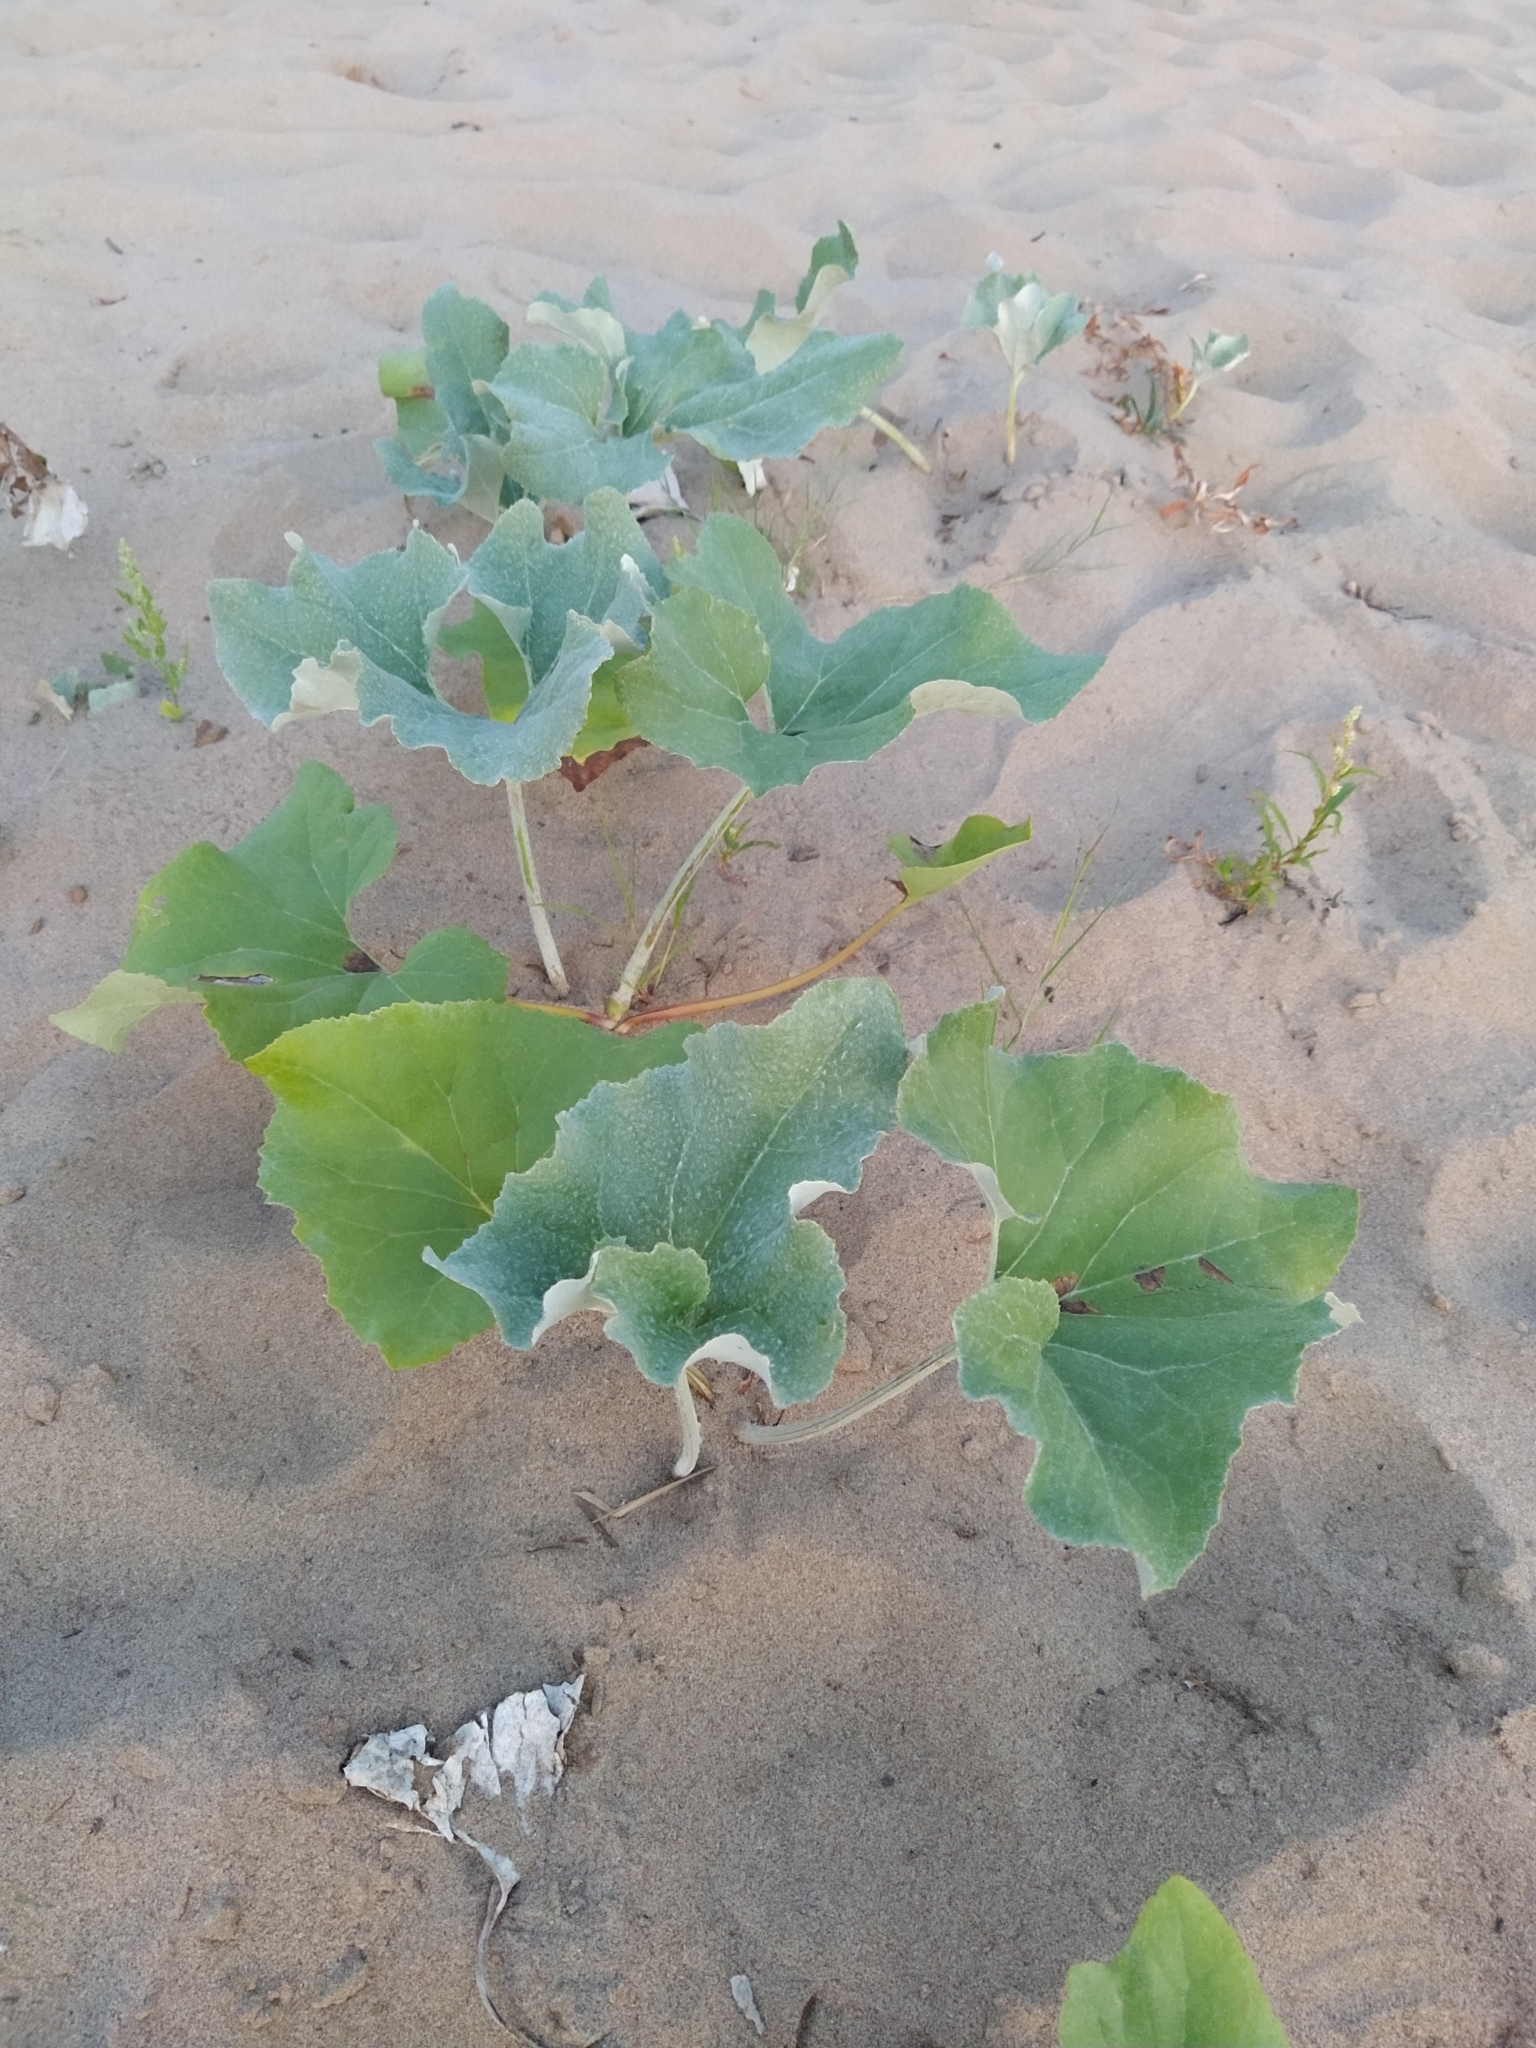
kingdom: Plantae
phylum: Tracheophyta
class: Magnoliopsida
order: Asterales
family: Asteraceae
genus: Petasites
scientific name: Petasites spurius
